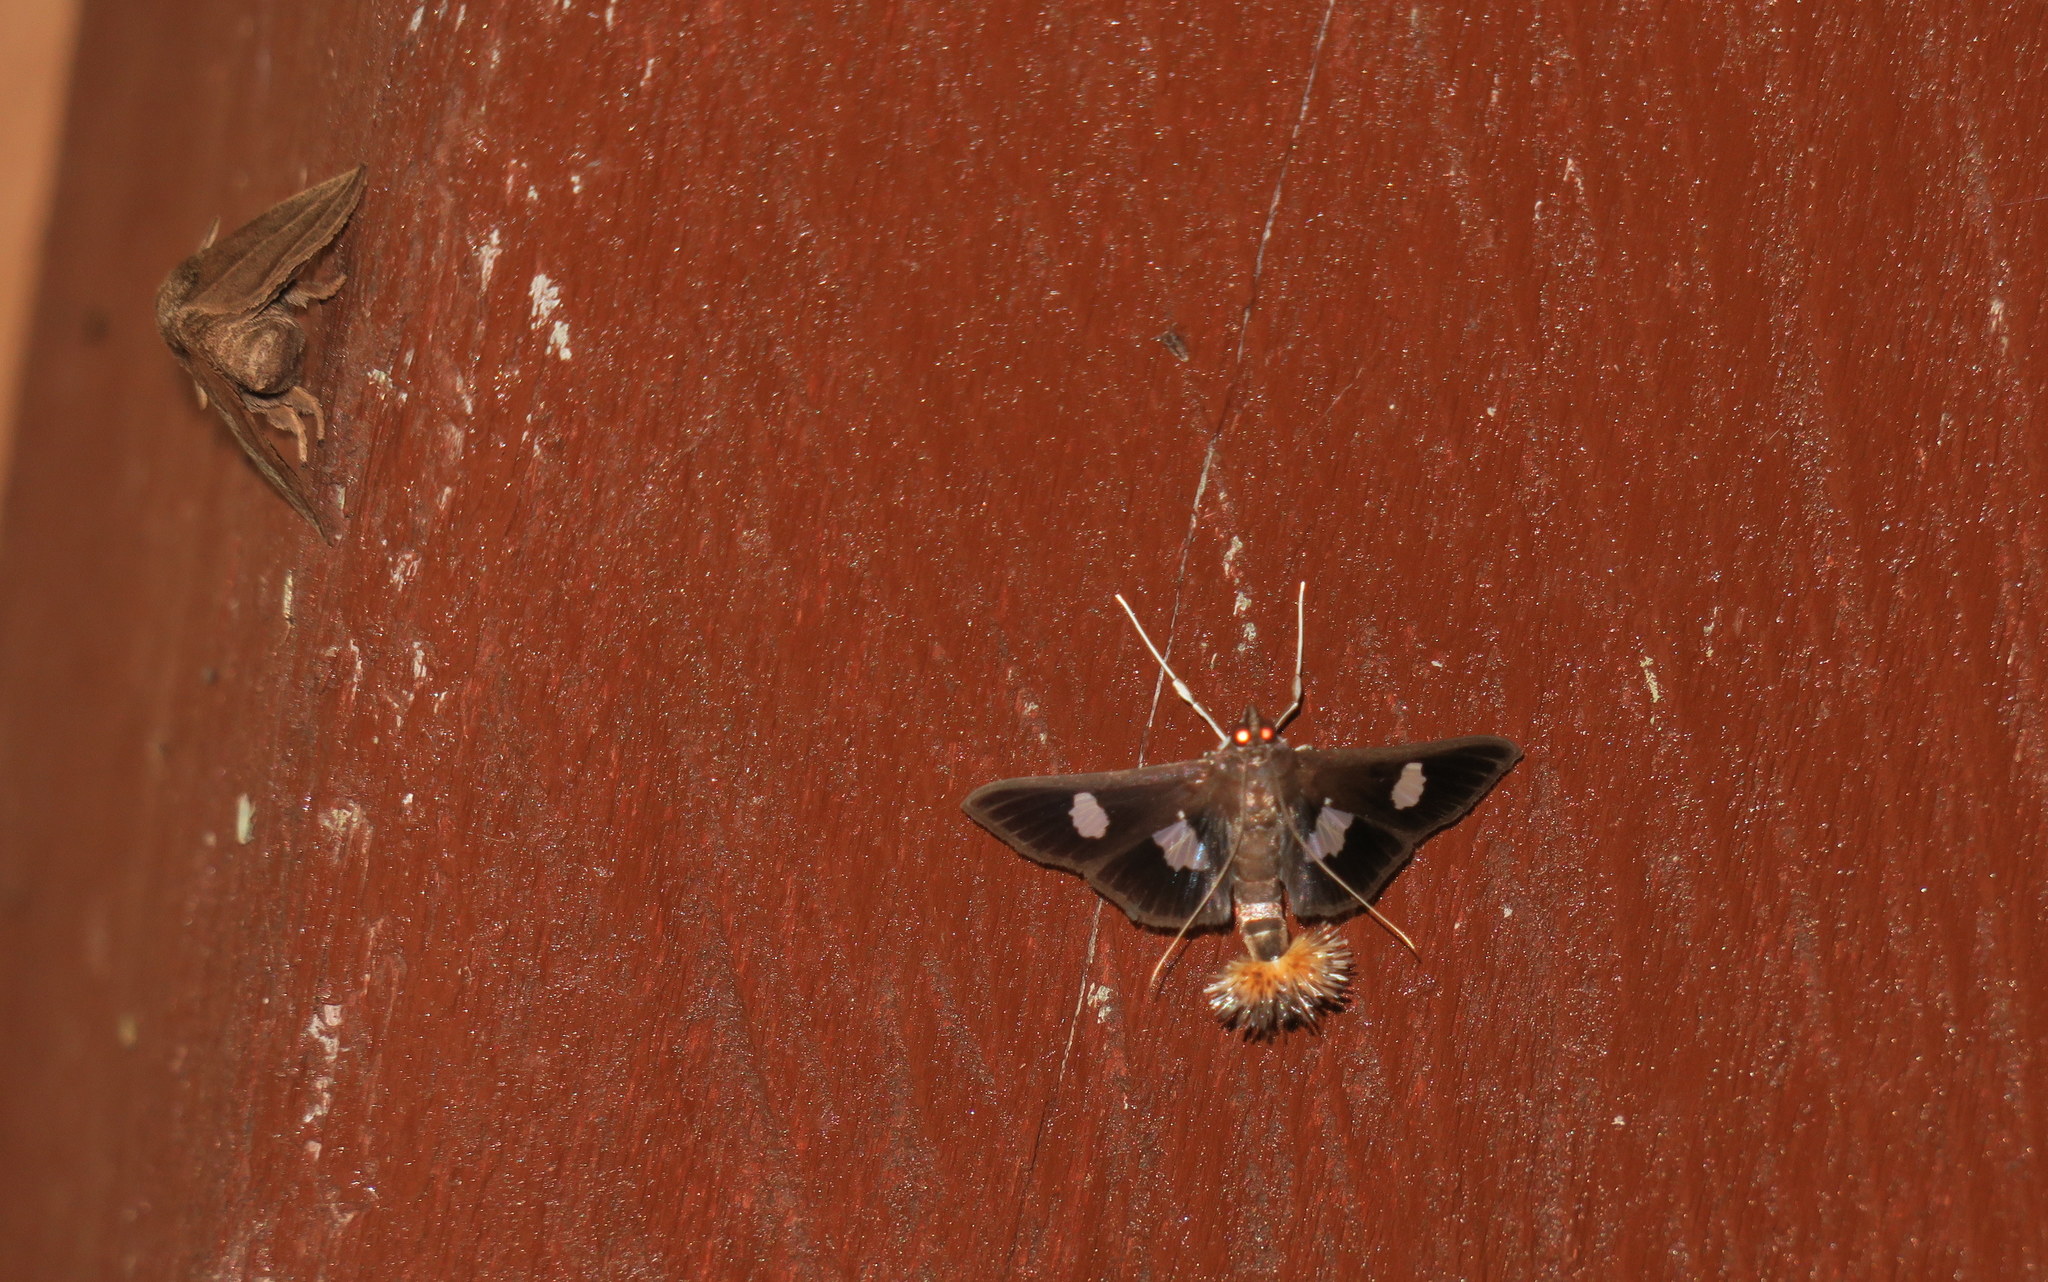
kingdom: Animalia
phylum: Arthropoda
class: Insecta
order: Lepidoptera
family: Crambidae
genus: Diaphania
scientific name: Diaphania exclusalis
